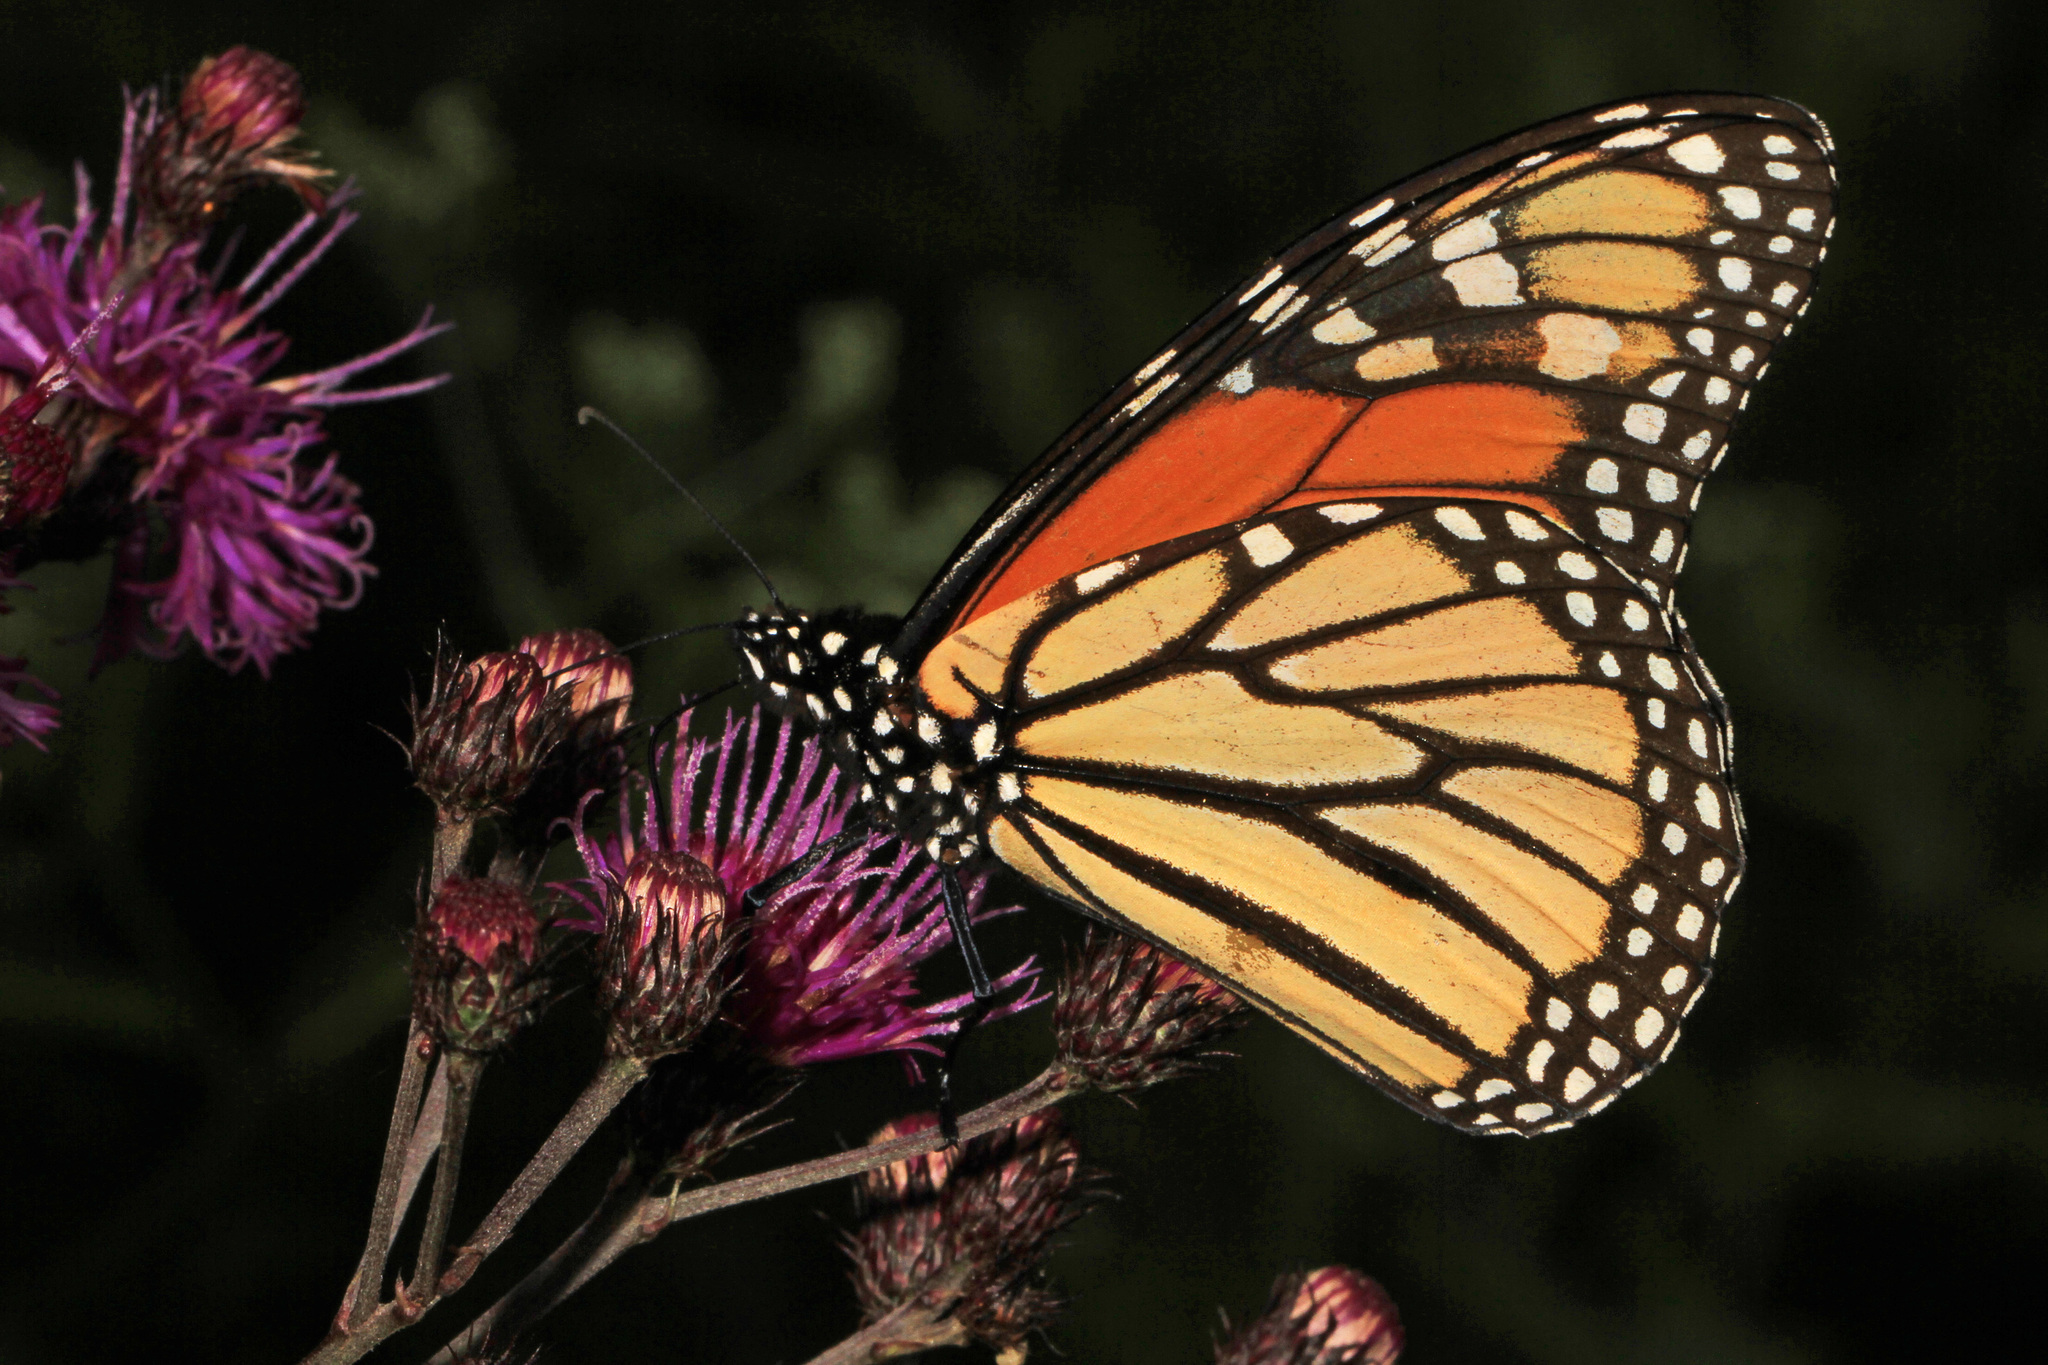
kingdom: Animalia
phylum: Arthropoda
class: Insecta
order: Lepidoptera
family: Nymphalidae
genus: Danaus
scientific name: Danaus plexippus
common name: Monarch
